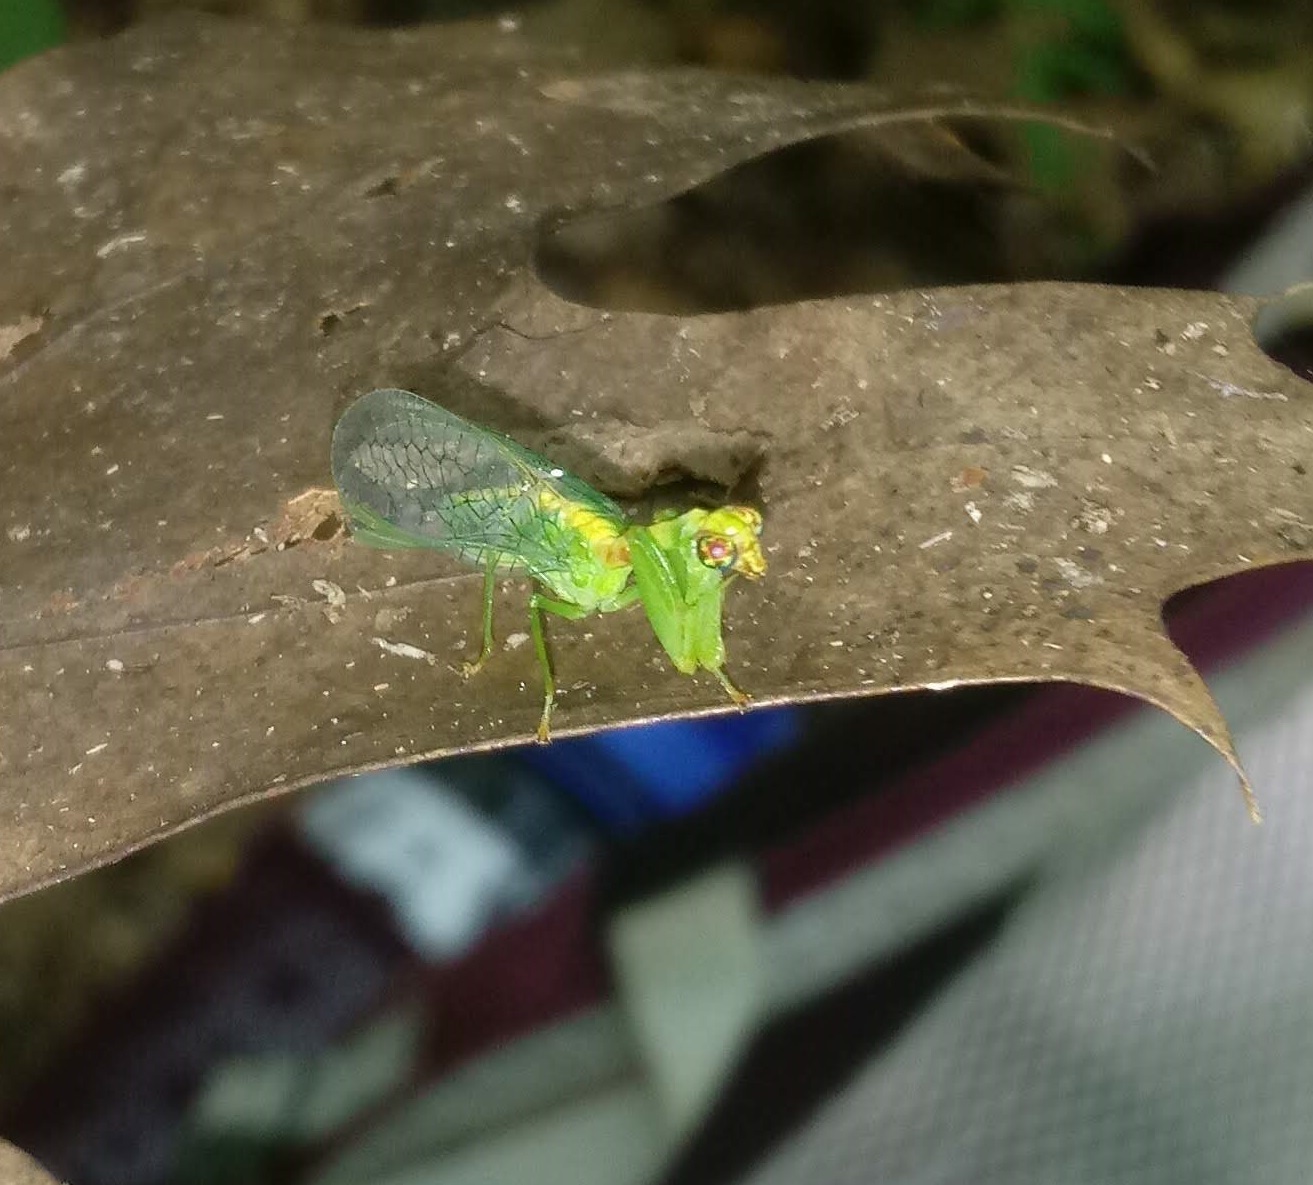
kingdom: Animalia
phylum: Arthropoda
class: Insecta
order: Neuroptera
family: Mantispidae
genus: Zeugomantispa
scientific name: Zeugomantispa minuta
